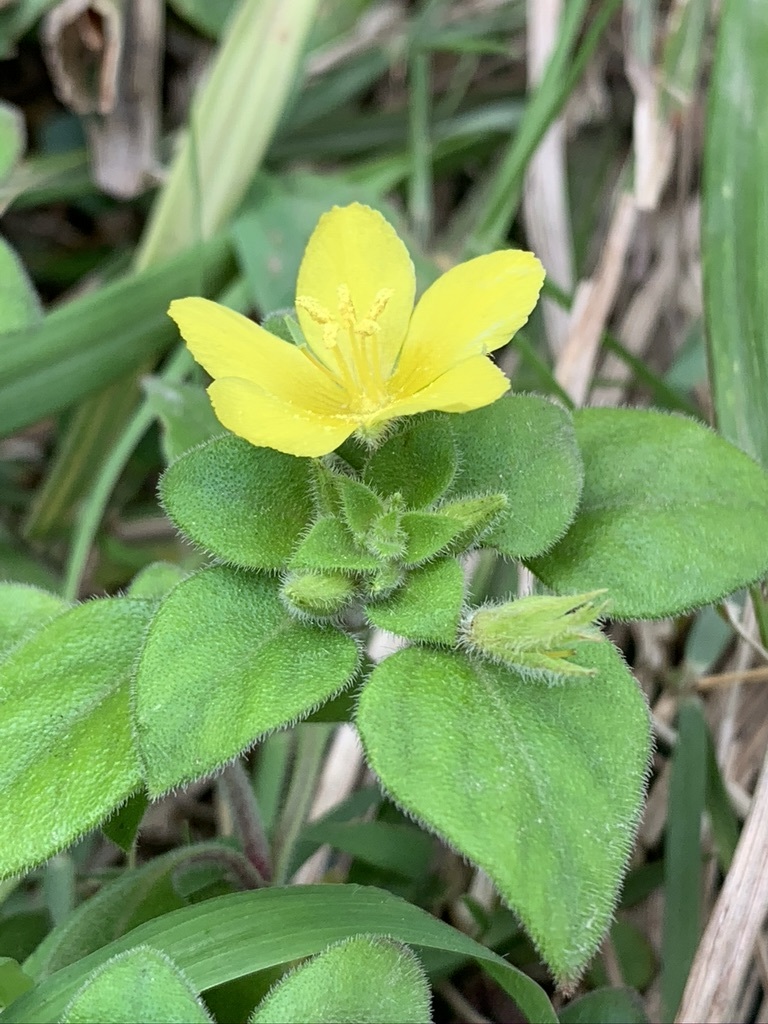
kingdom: Plantae
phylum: Tracheophyta
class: Magnoliopsida
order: Ericales
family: Primulaceae
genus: Lysimachia
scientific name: Lysimachia remota
